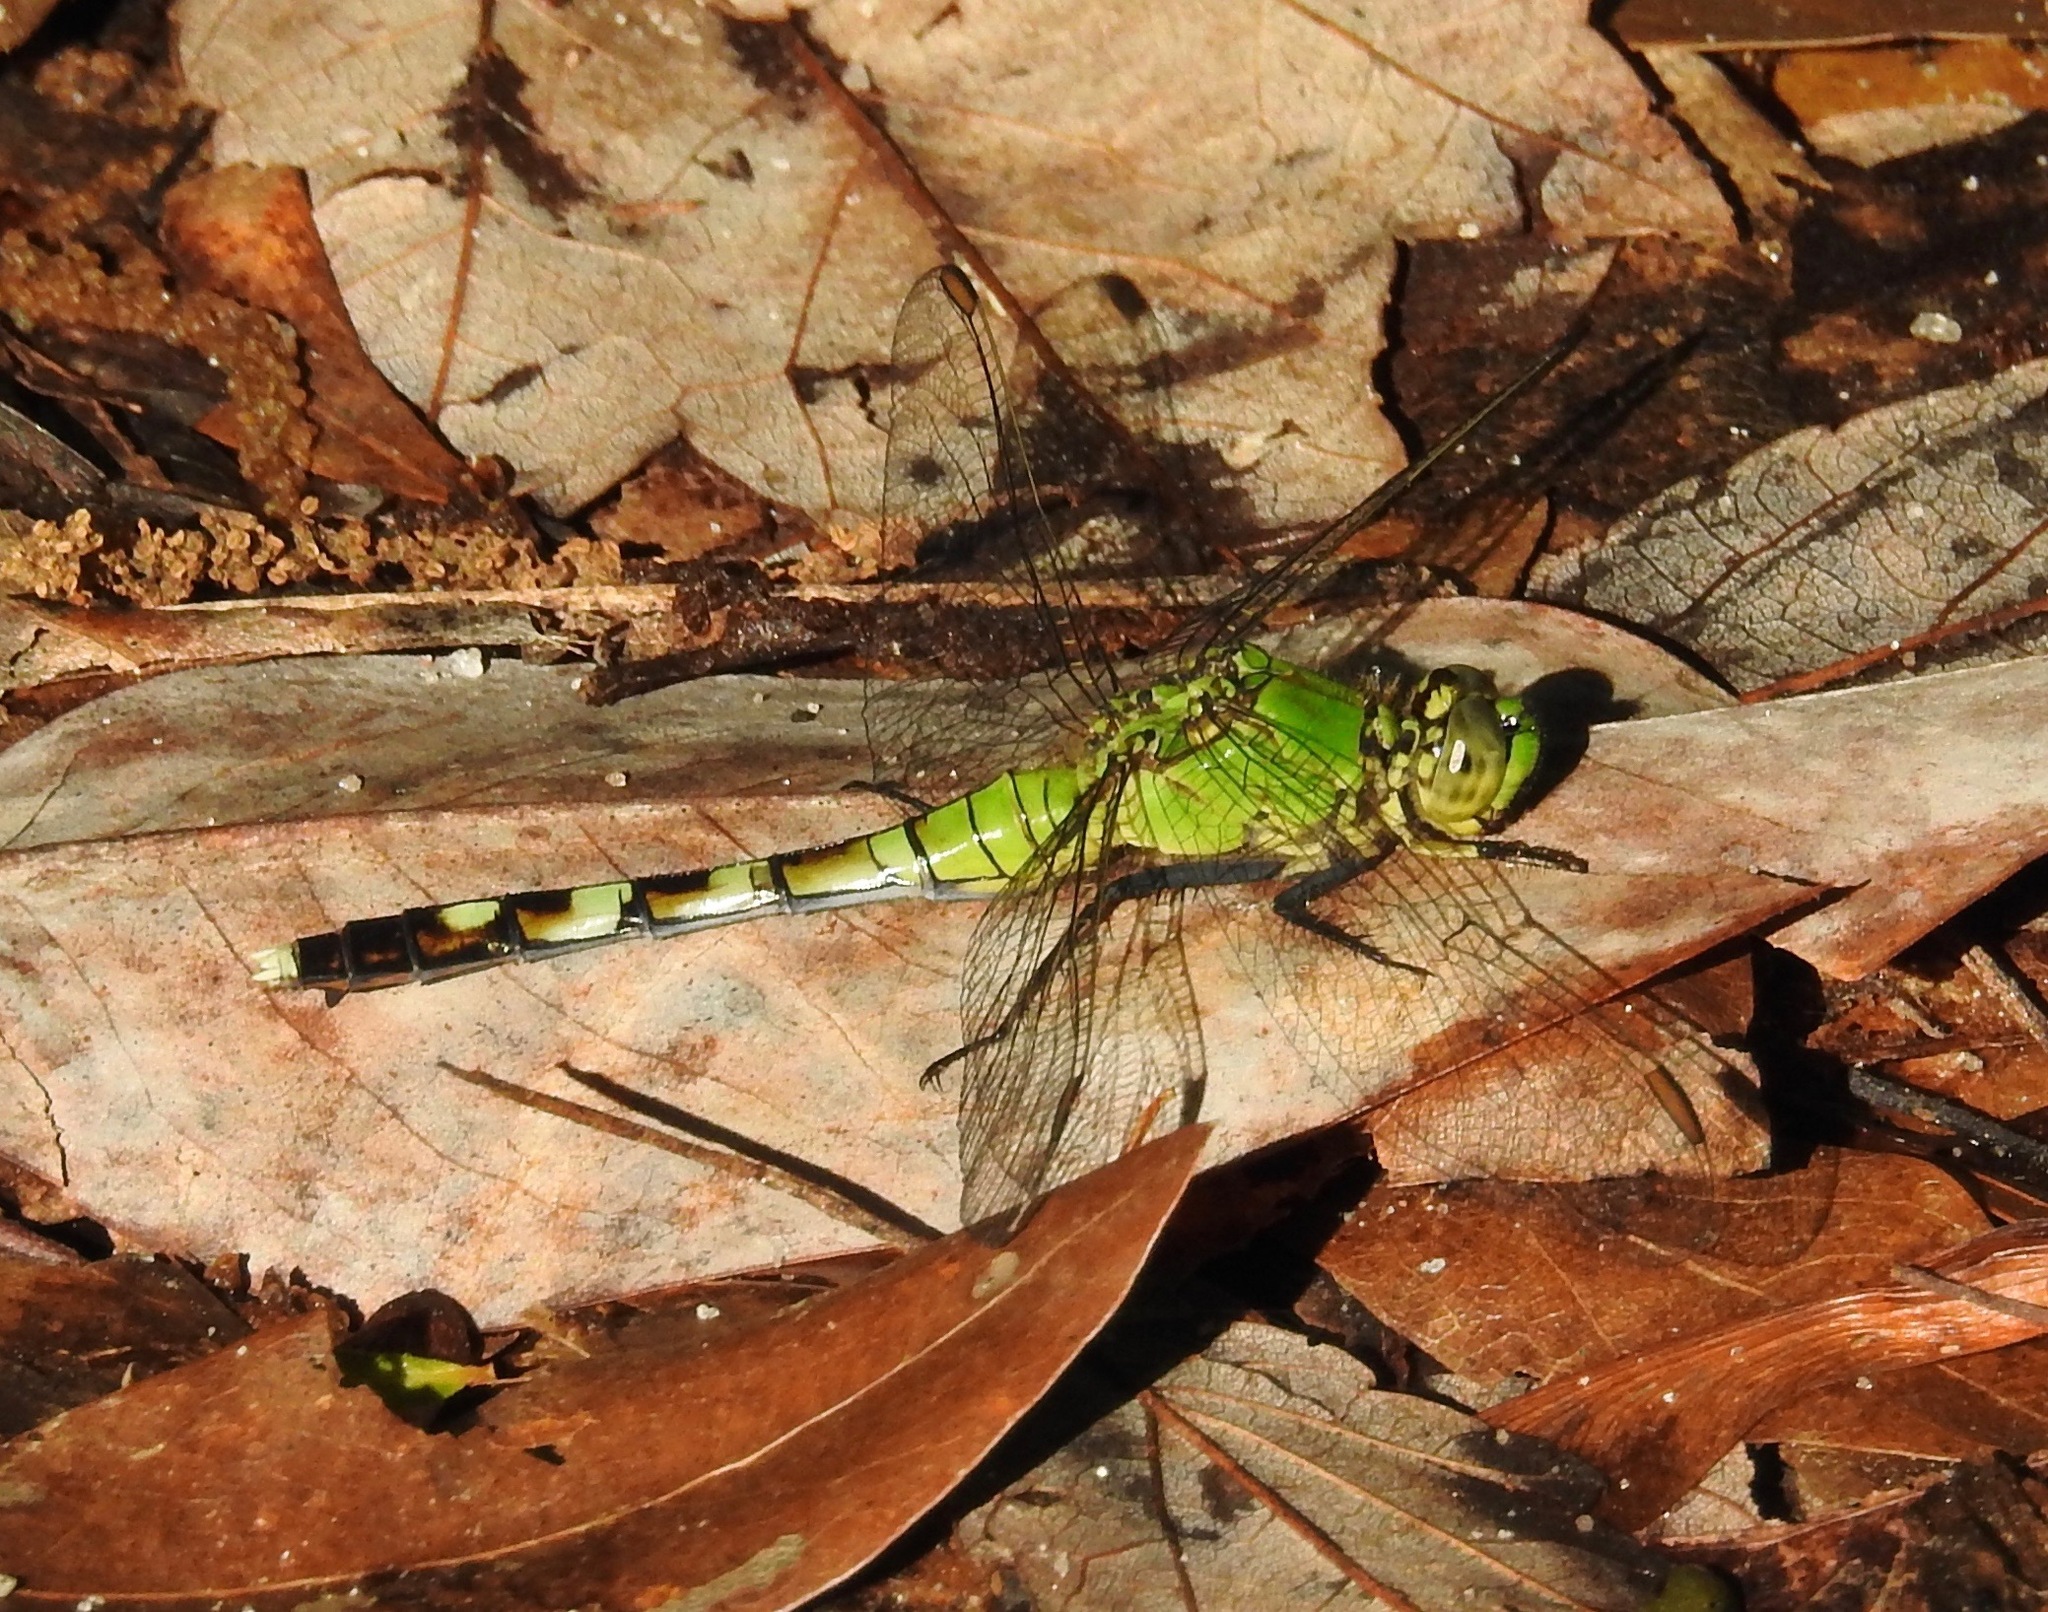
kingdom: Animalia
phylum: Arthropoda
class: Insecta
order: Odonata
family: Libellulidae
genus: Erythemis
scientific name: Erythemis simplicicollis
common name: Eastern pondhawk
